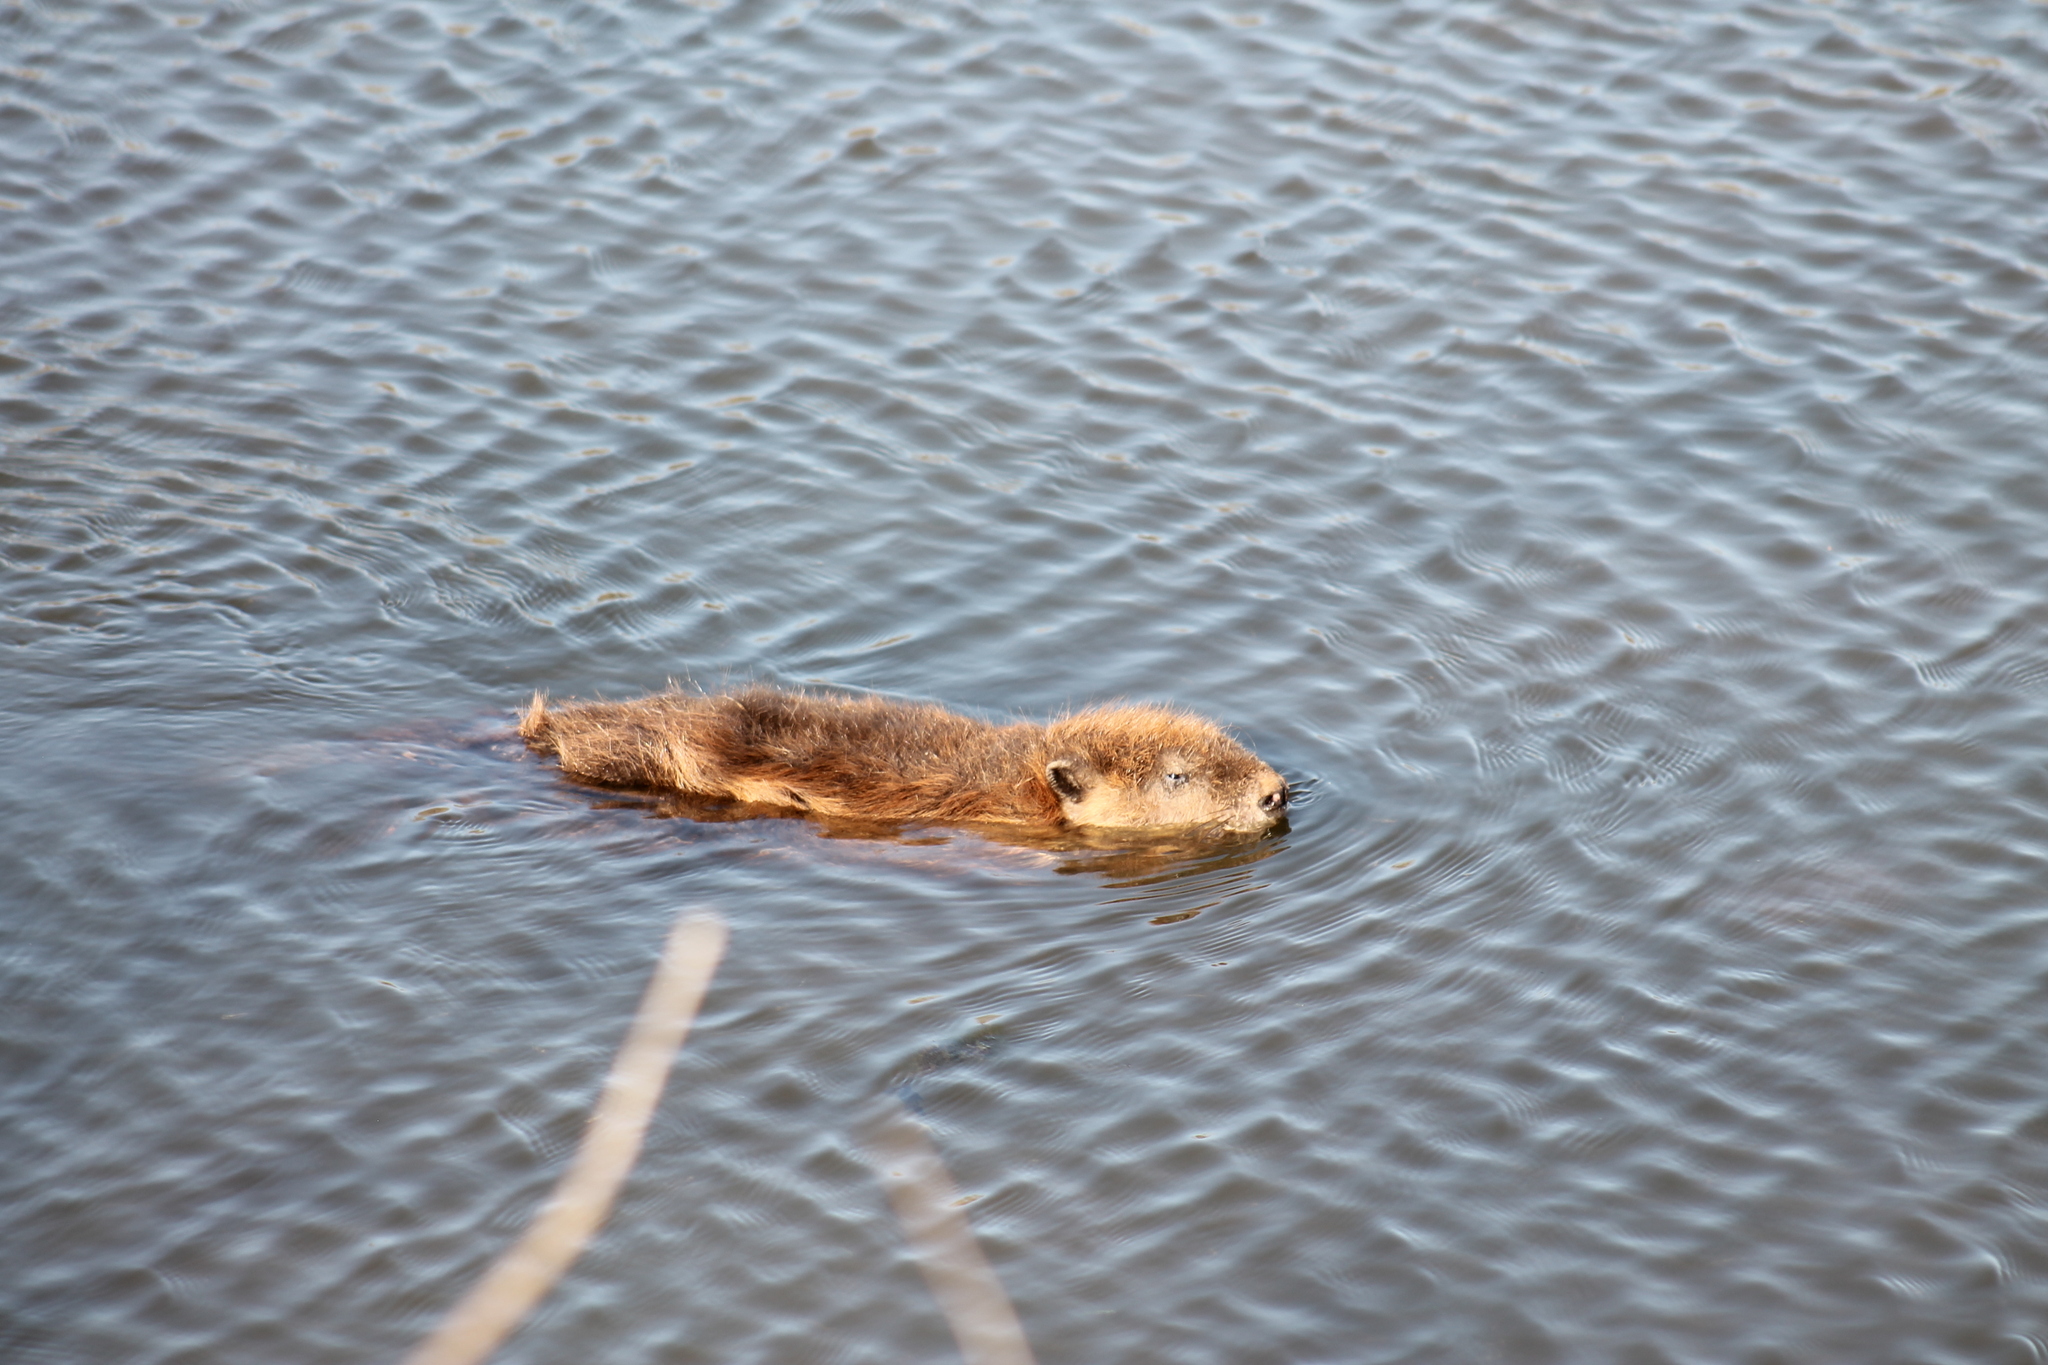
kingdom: Animalia
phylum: Chordata
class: Mammalia
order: Rodentia
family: Castoridae
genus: Castor
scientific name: Castor canadensis
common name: American beaver
